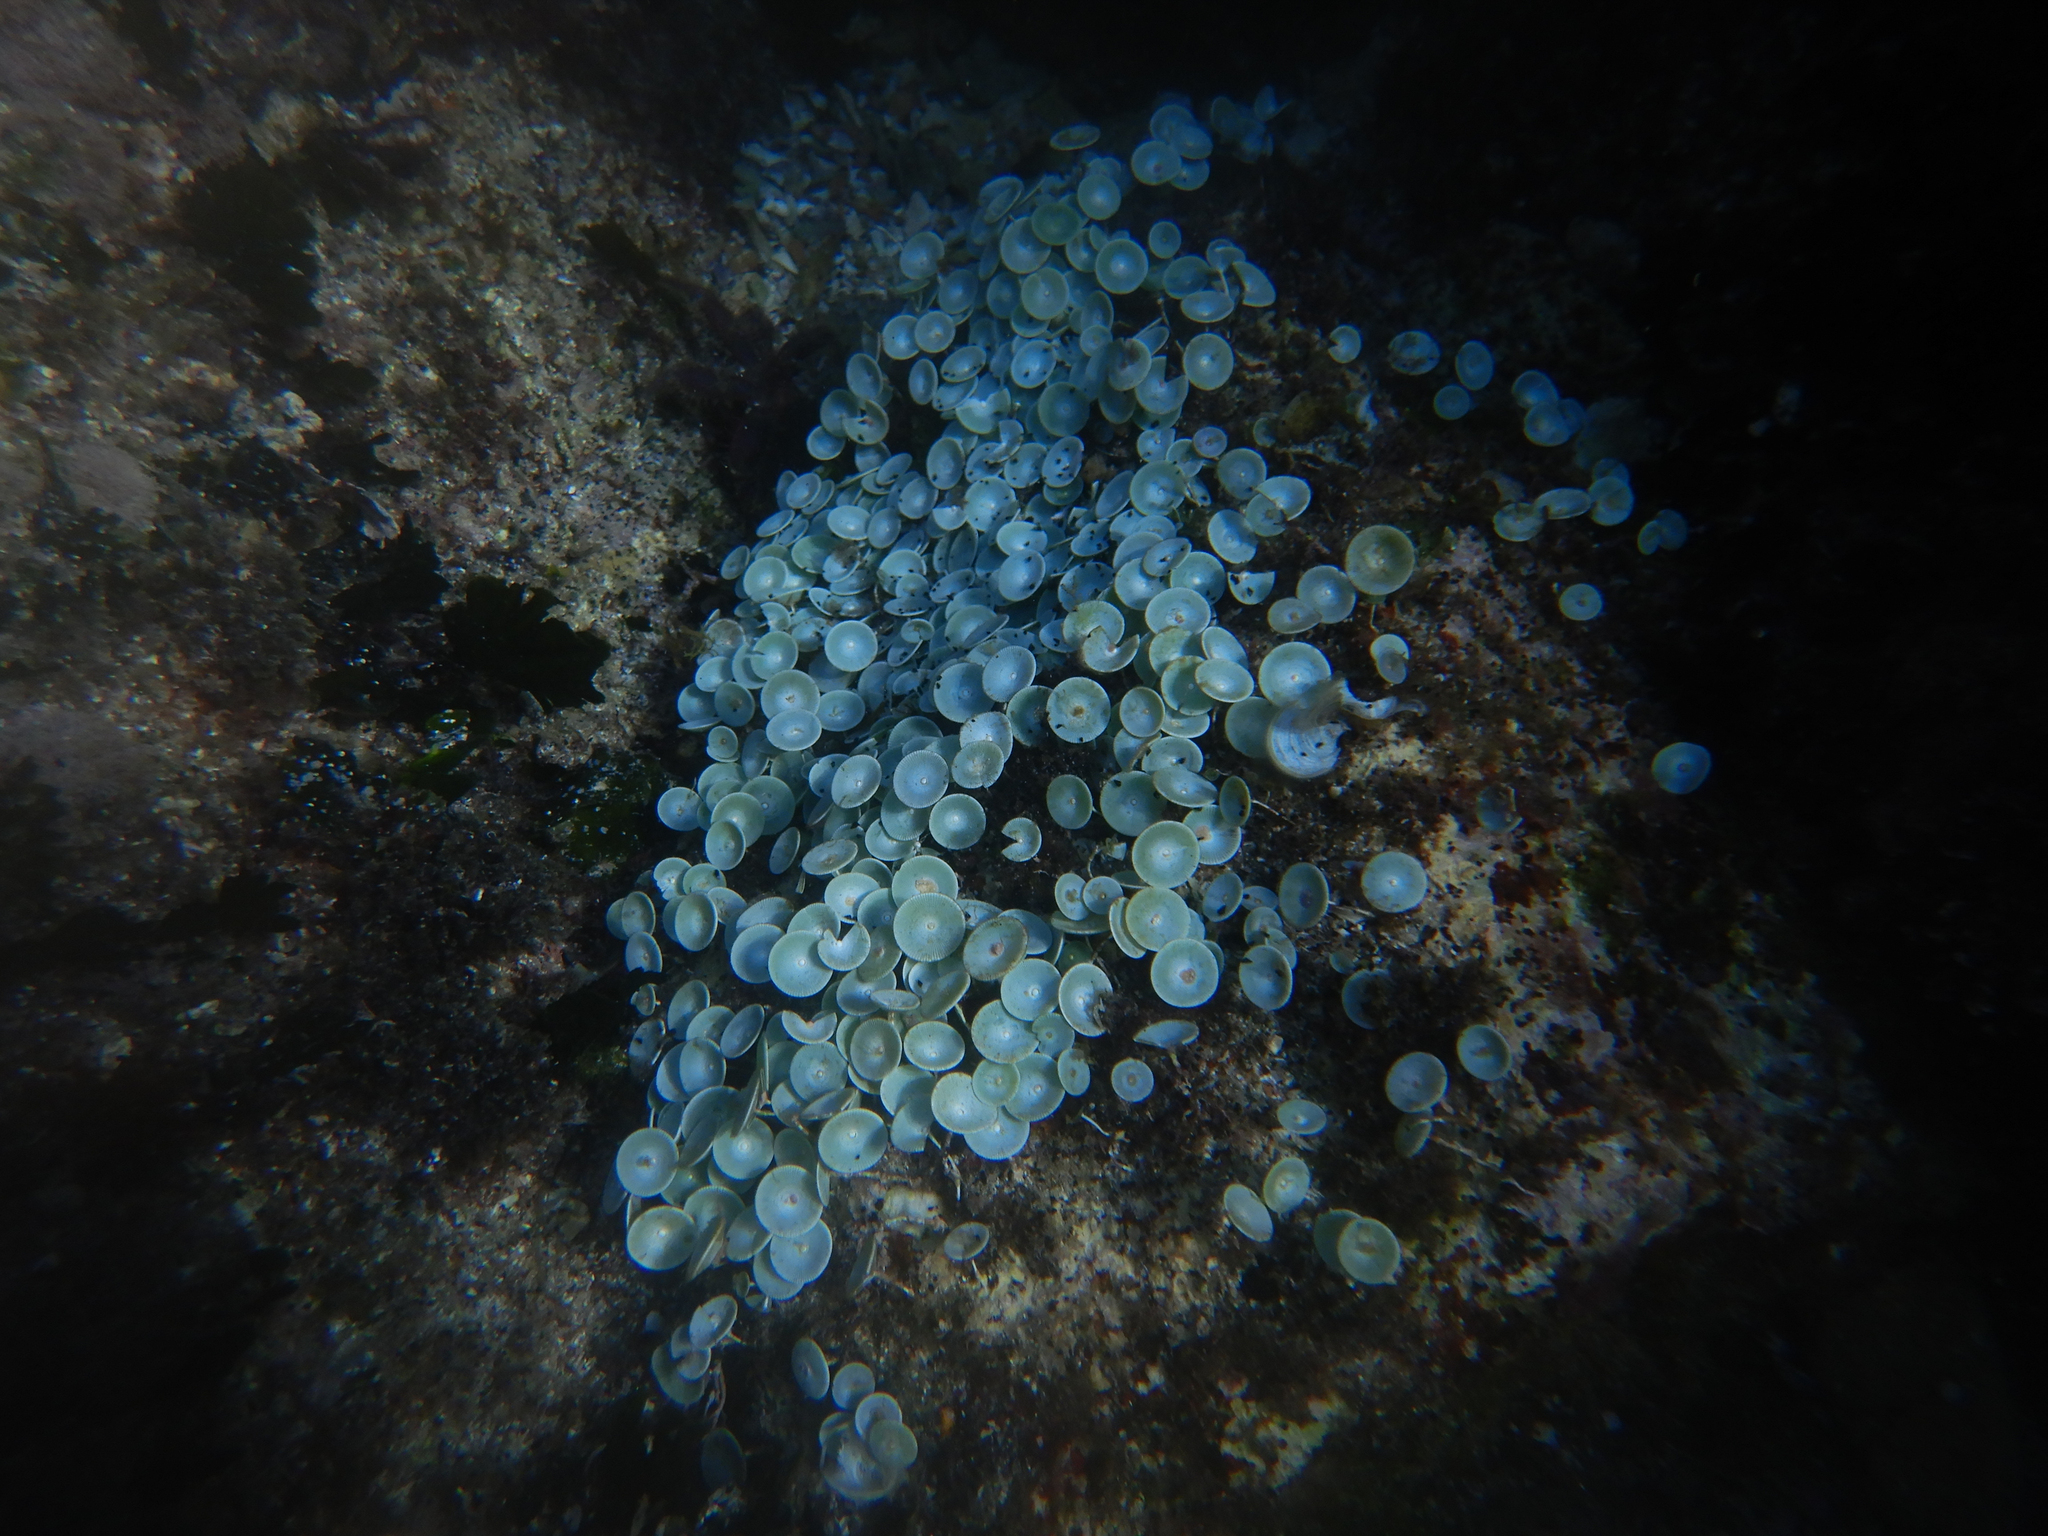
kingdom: Plantae
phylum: Chlorophyta
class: Ulvophyceae
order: Dasycladales
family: Polyphysaceae
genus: Acetabularia
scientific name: Acetabularia acetabulum
